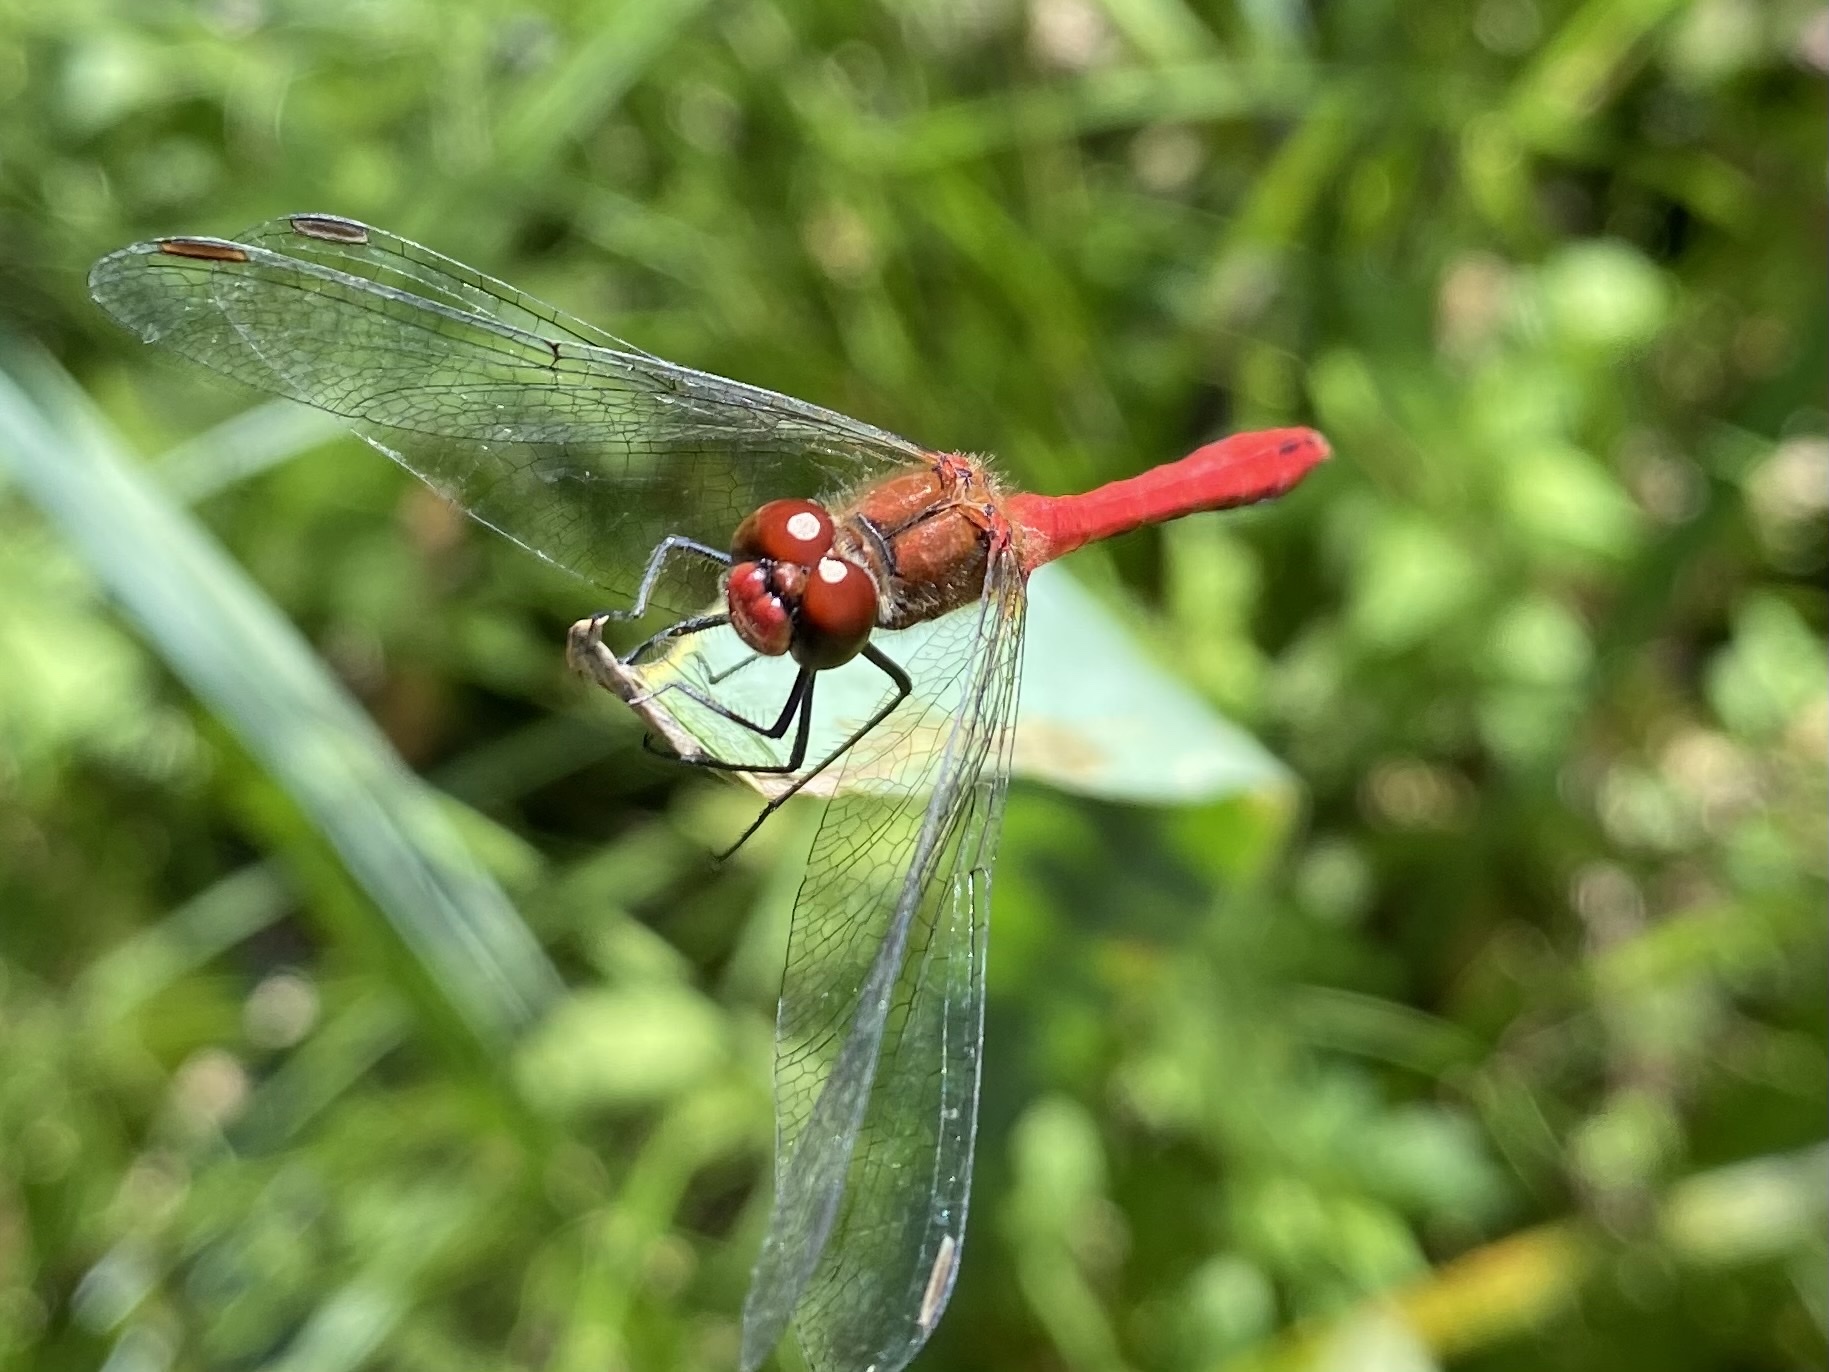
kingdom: Animalia
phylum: Arthropoda
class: Insecta
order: Odonata
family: Libellulidae
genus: Sympetrum
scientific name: Sympetrum sanguineum
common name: Ruddy darter
